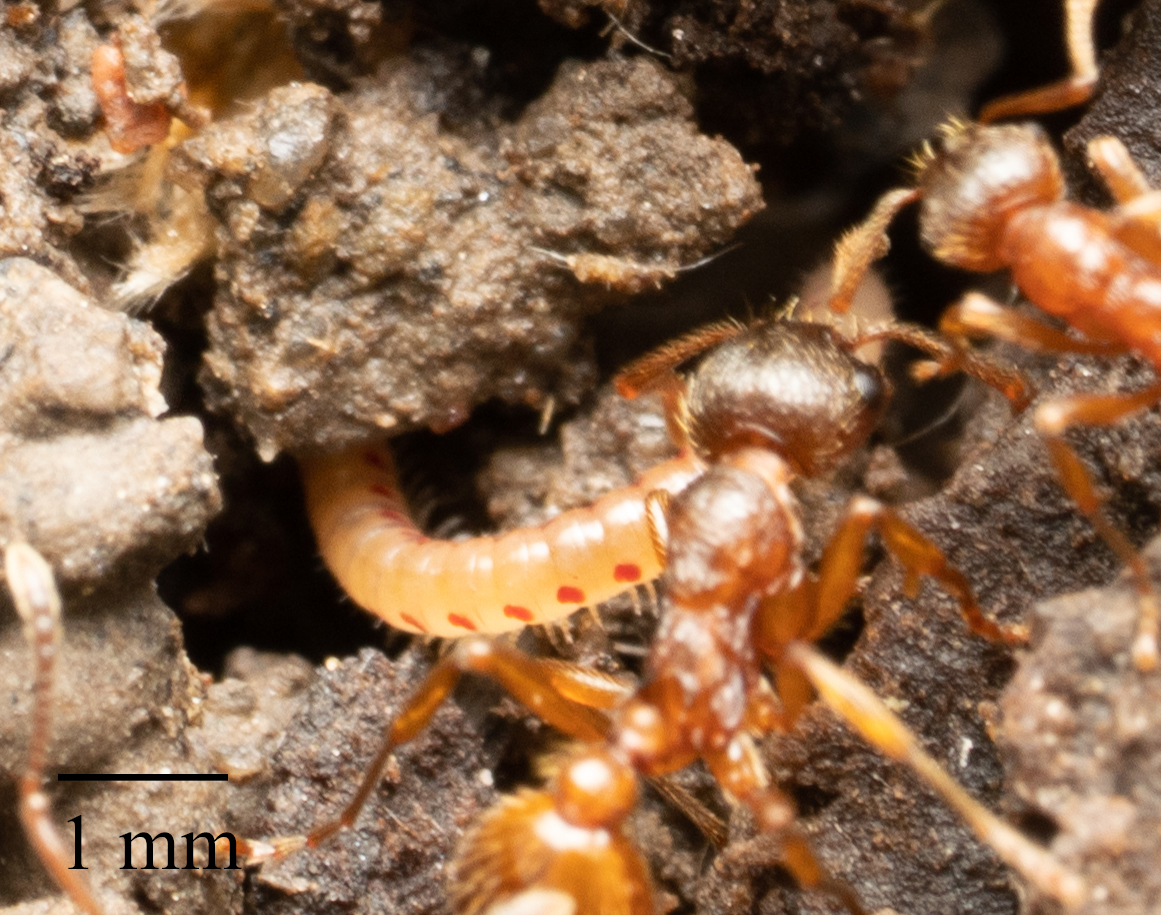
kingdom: Animalia
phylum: Arthropoda
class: Diplopoda
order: Julida
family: Blaniulidae
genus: Blaniulus
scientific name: Blaniulus guttulatus
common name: Spotted snake millipede
